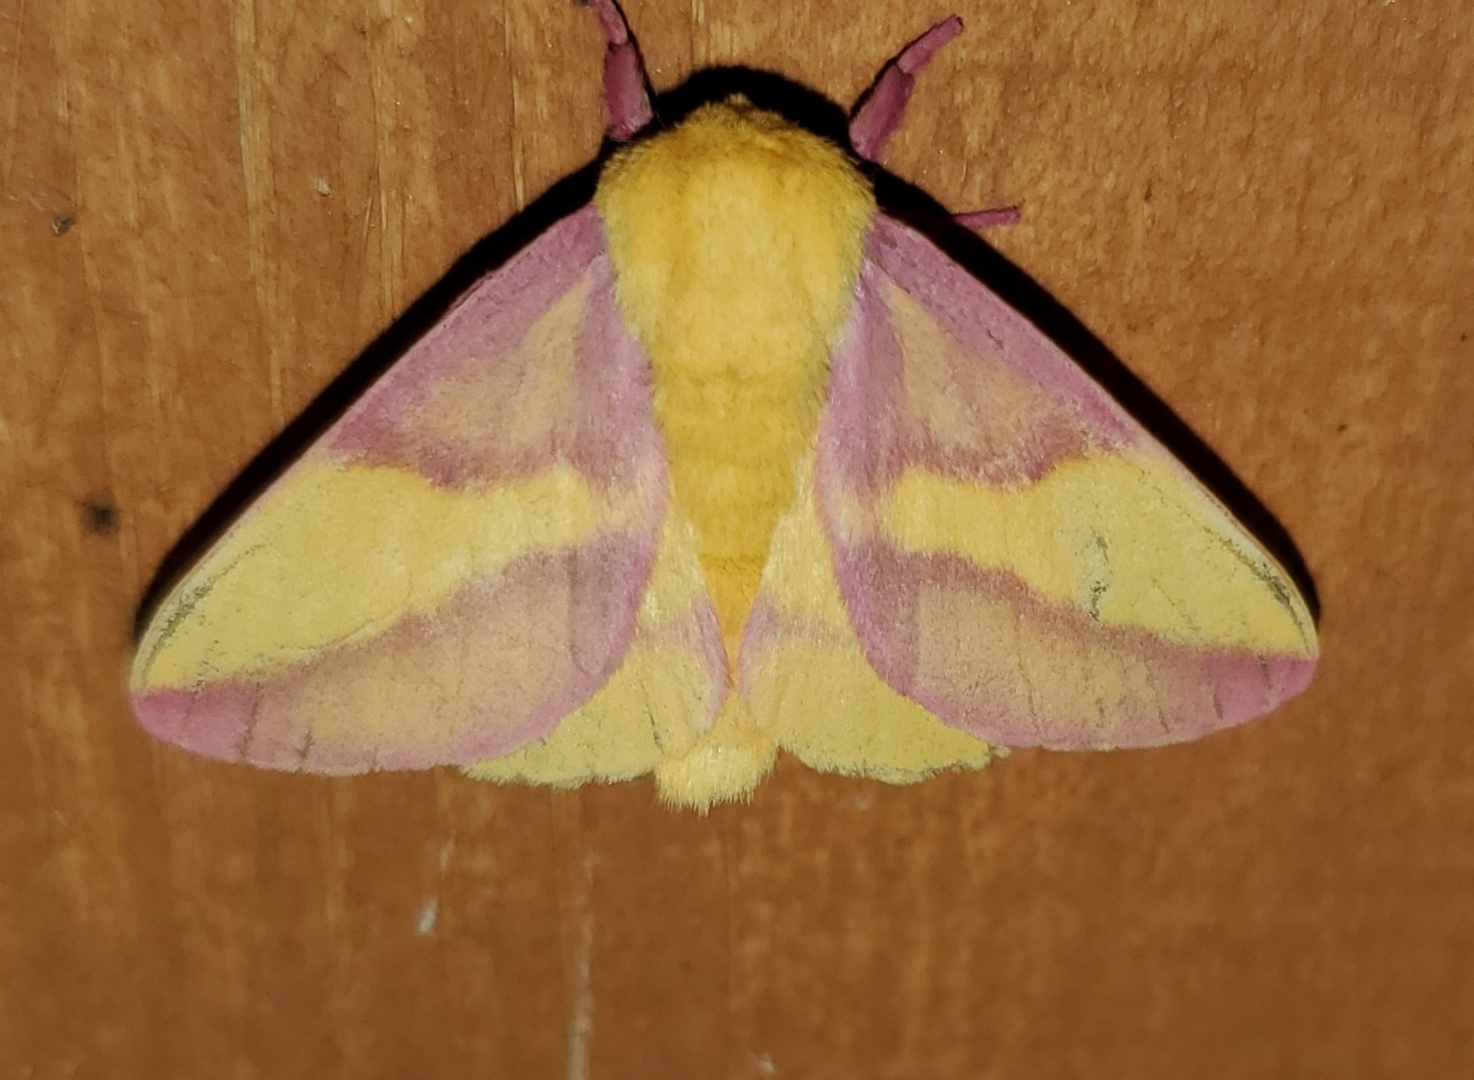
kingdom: Animalia
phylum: Arthropoda
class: Insecta
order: Lepidoptera
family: Saturniidae
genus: Dryocampa
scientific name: Dryocampa rubicunda
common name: Rosy maple moth
